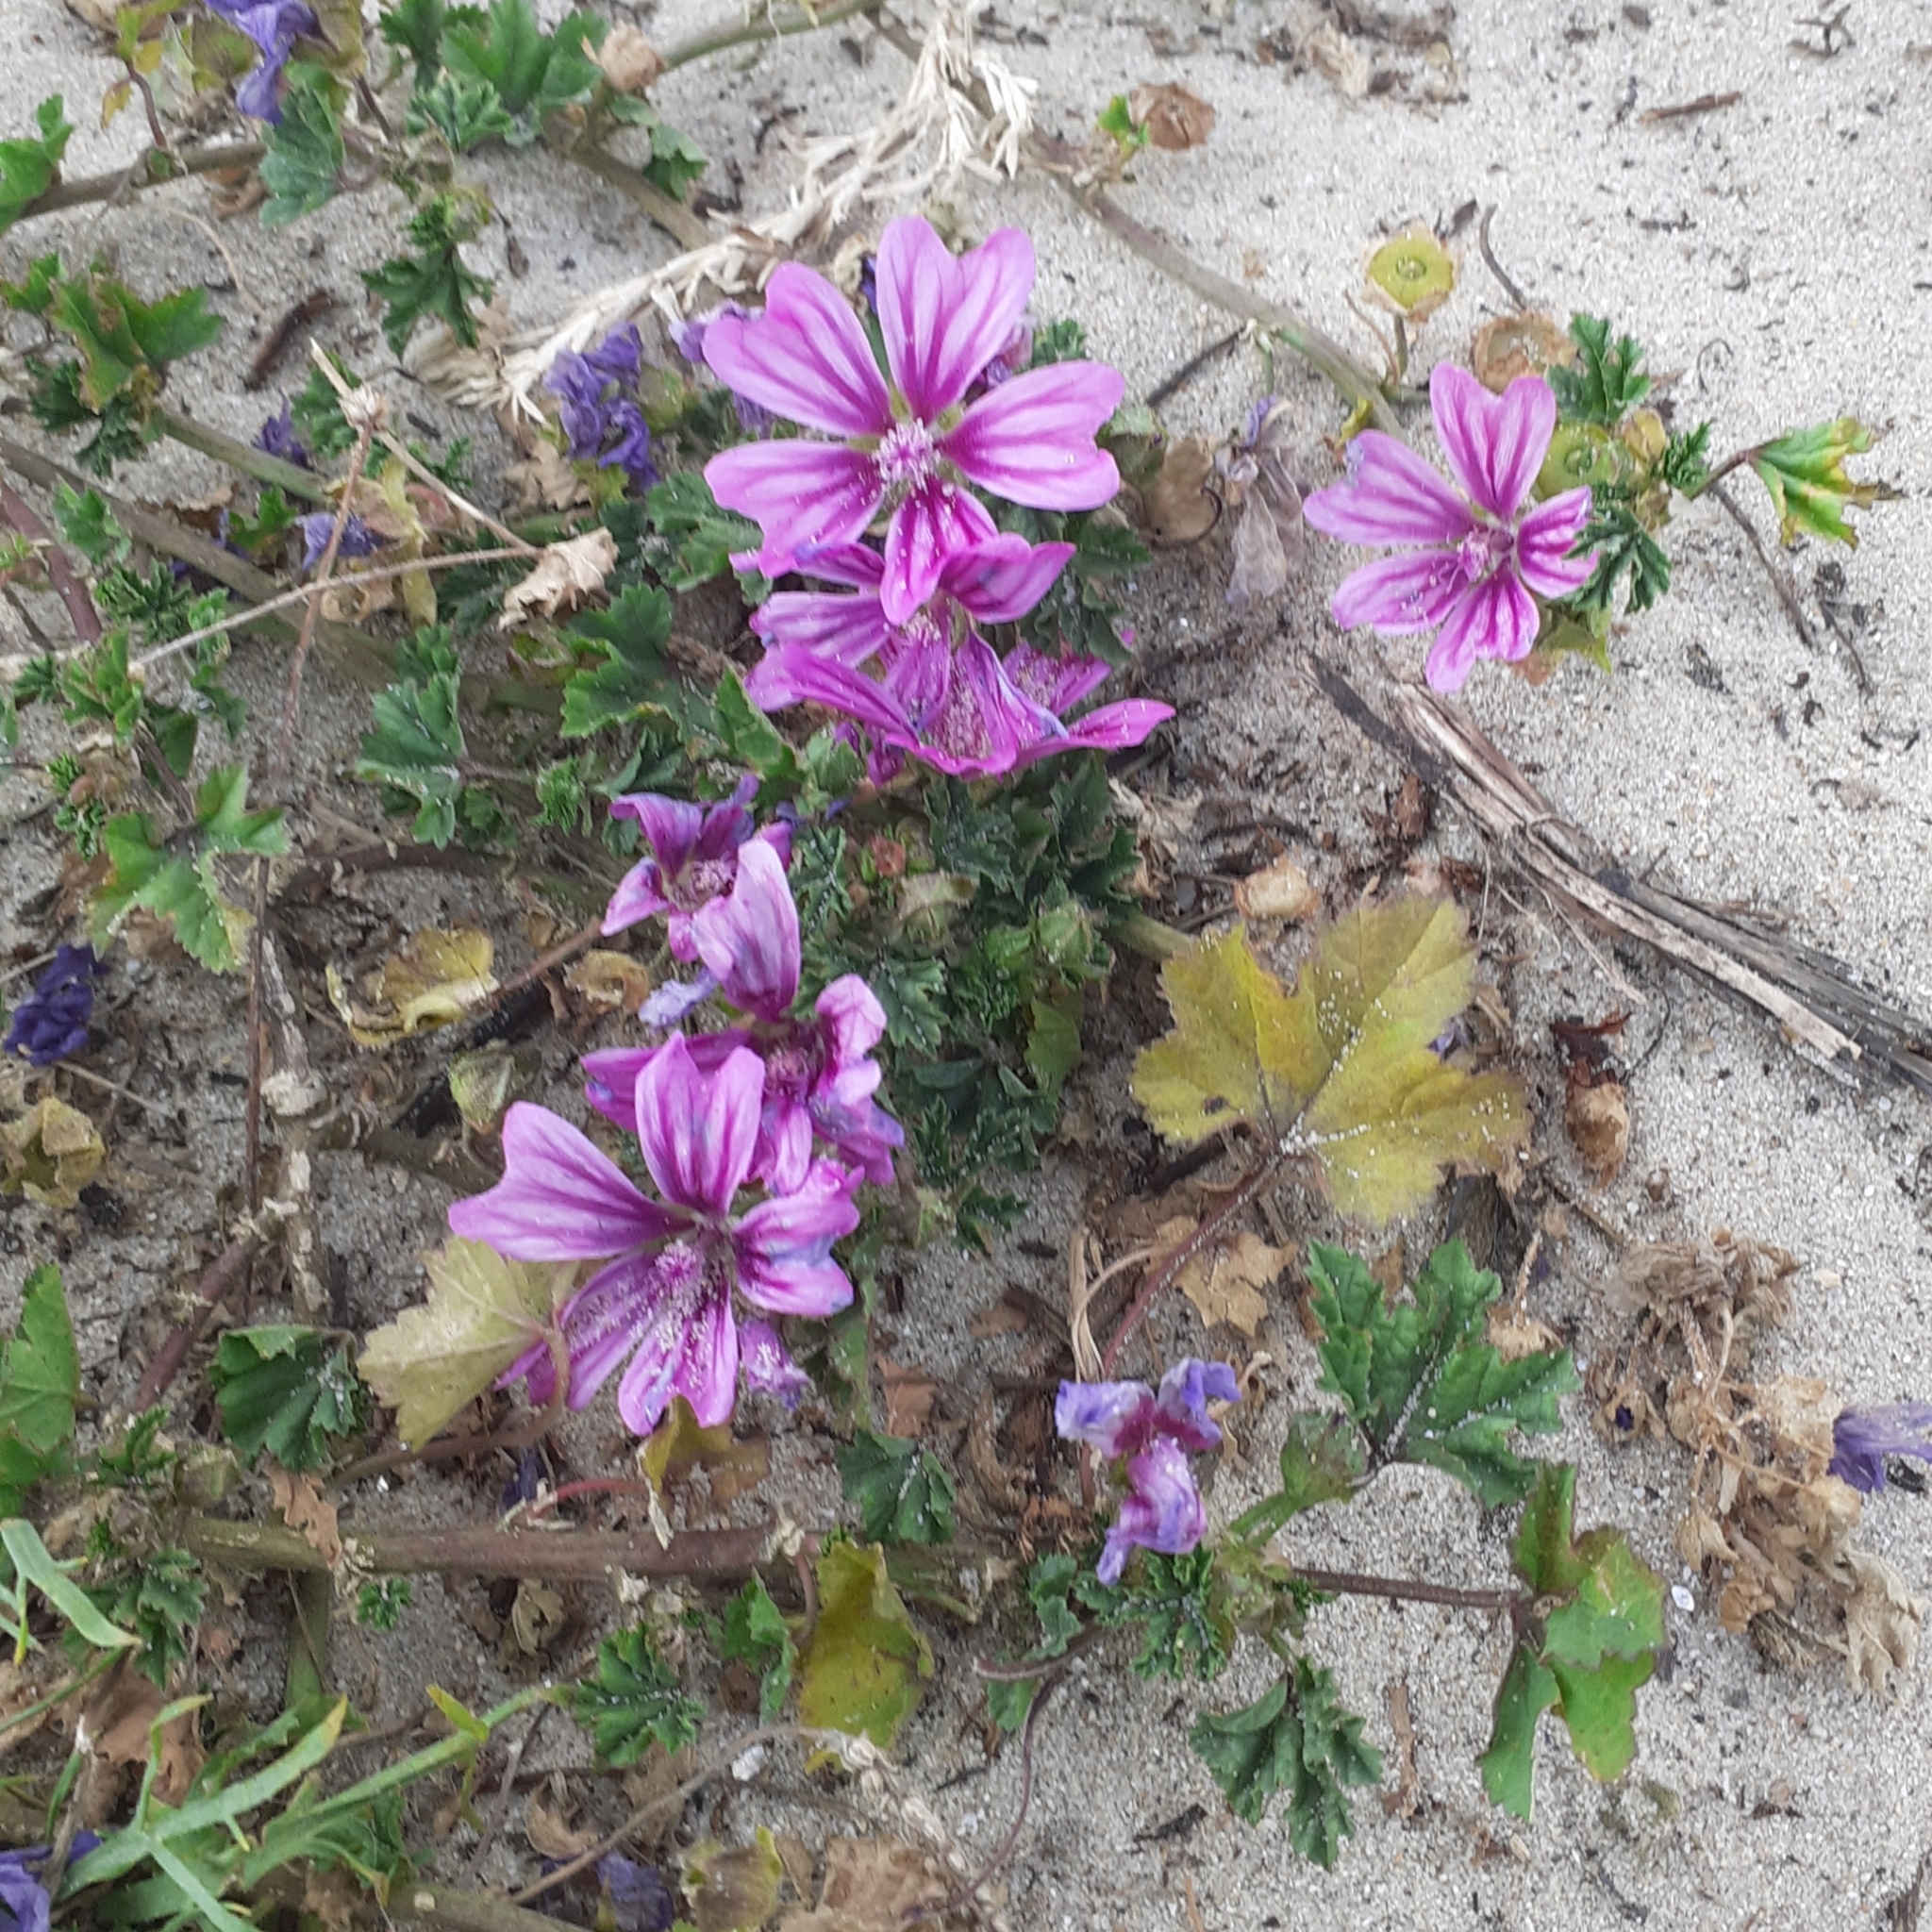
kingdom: Plantae
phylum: Tracheophyta
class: Magnoliopsida
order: Malvales
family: Malvaceae
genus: Malva
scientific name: Malva sylvestris
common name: Common mallow
